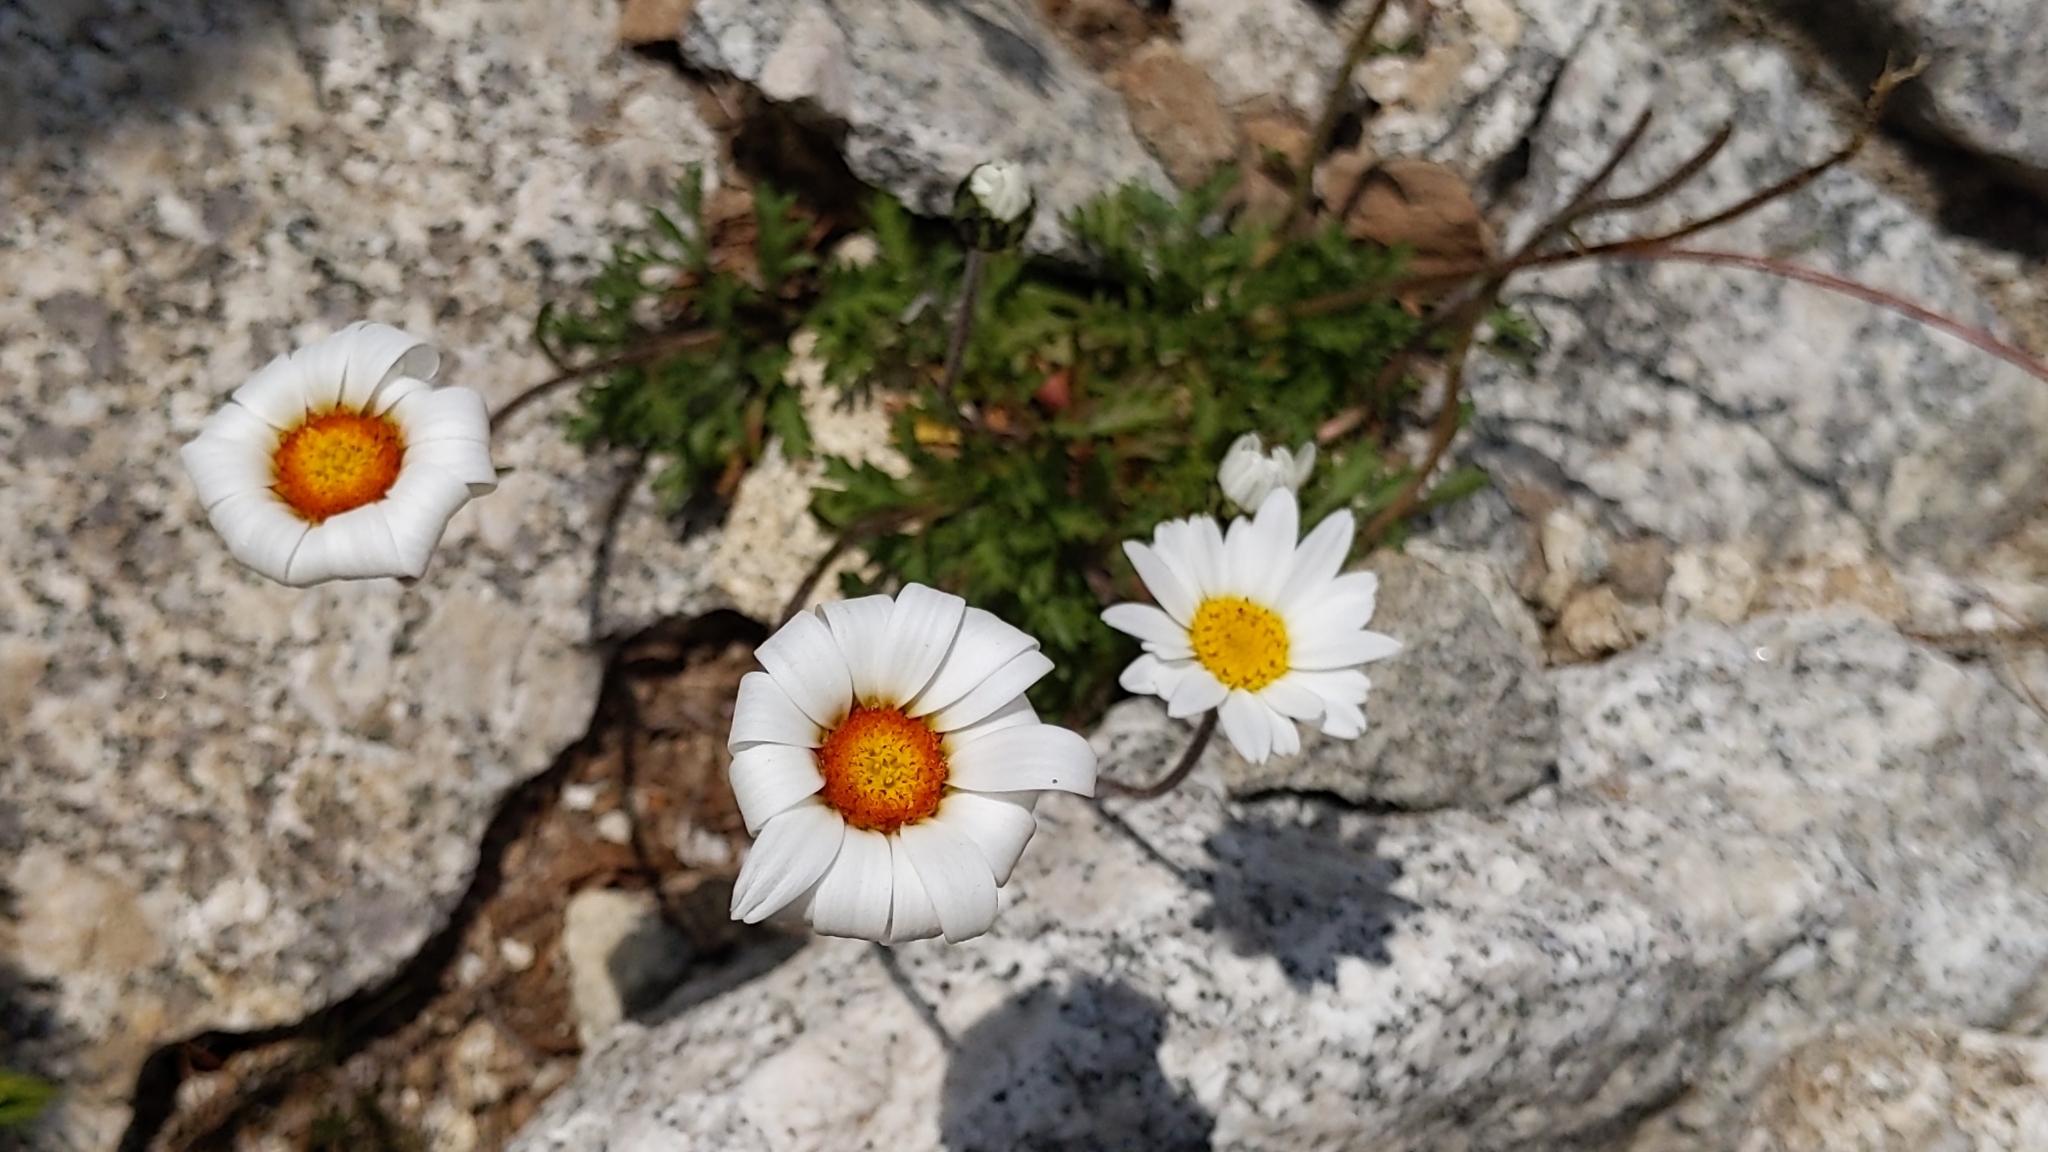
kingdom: Plantae
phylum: Tracheophyta
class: Magnoliopsida
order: Asterales
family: Asteraceae
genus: Leucanthemopsis
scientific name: Leucanthemopsis alpina
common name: Alpine moon daisy
